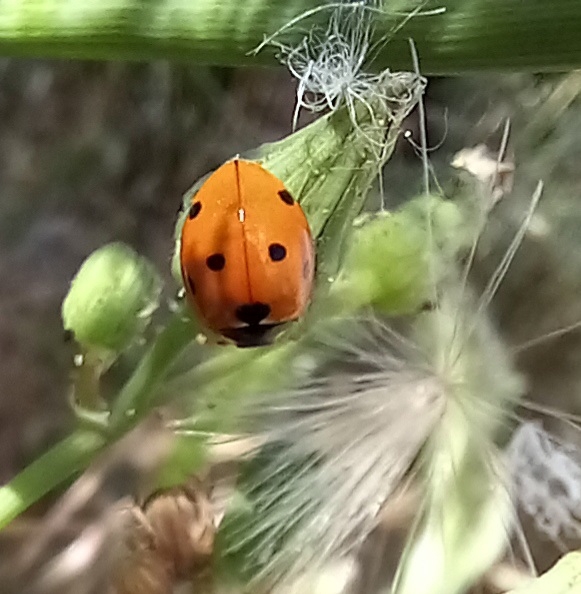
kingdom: Animalia
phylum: Arthropoda
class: Insecta
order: Coleoptera
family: Coccinellidae
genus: Coccinella
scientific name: Coccinella septempunctata
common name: Sevenspotted lady beetle
